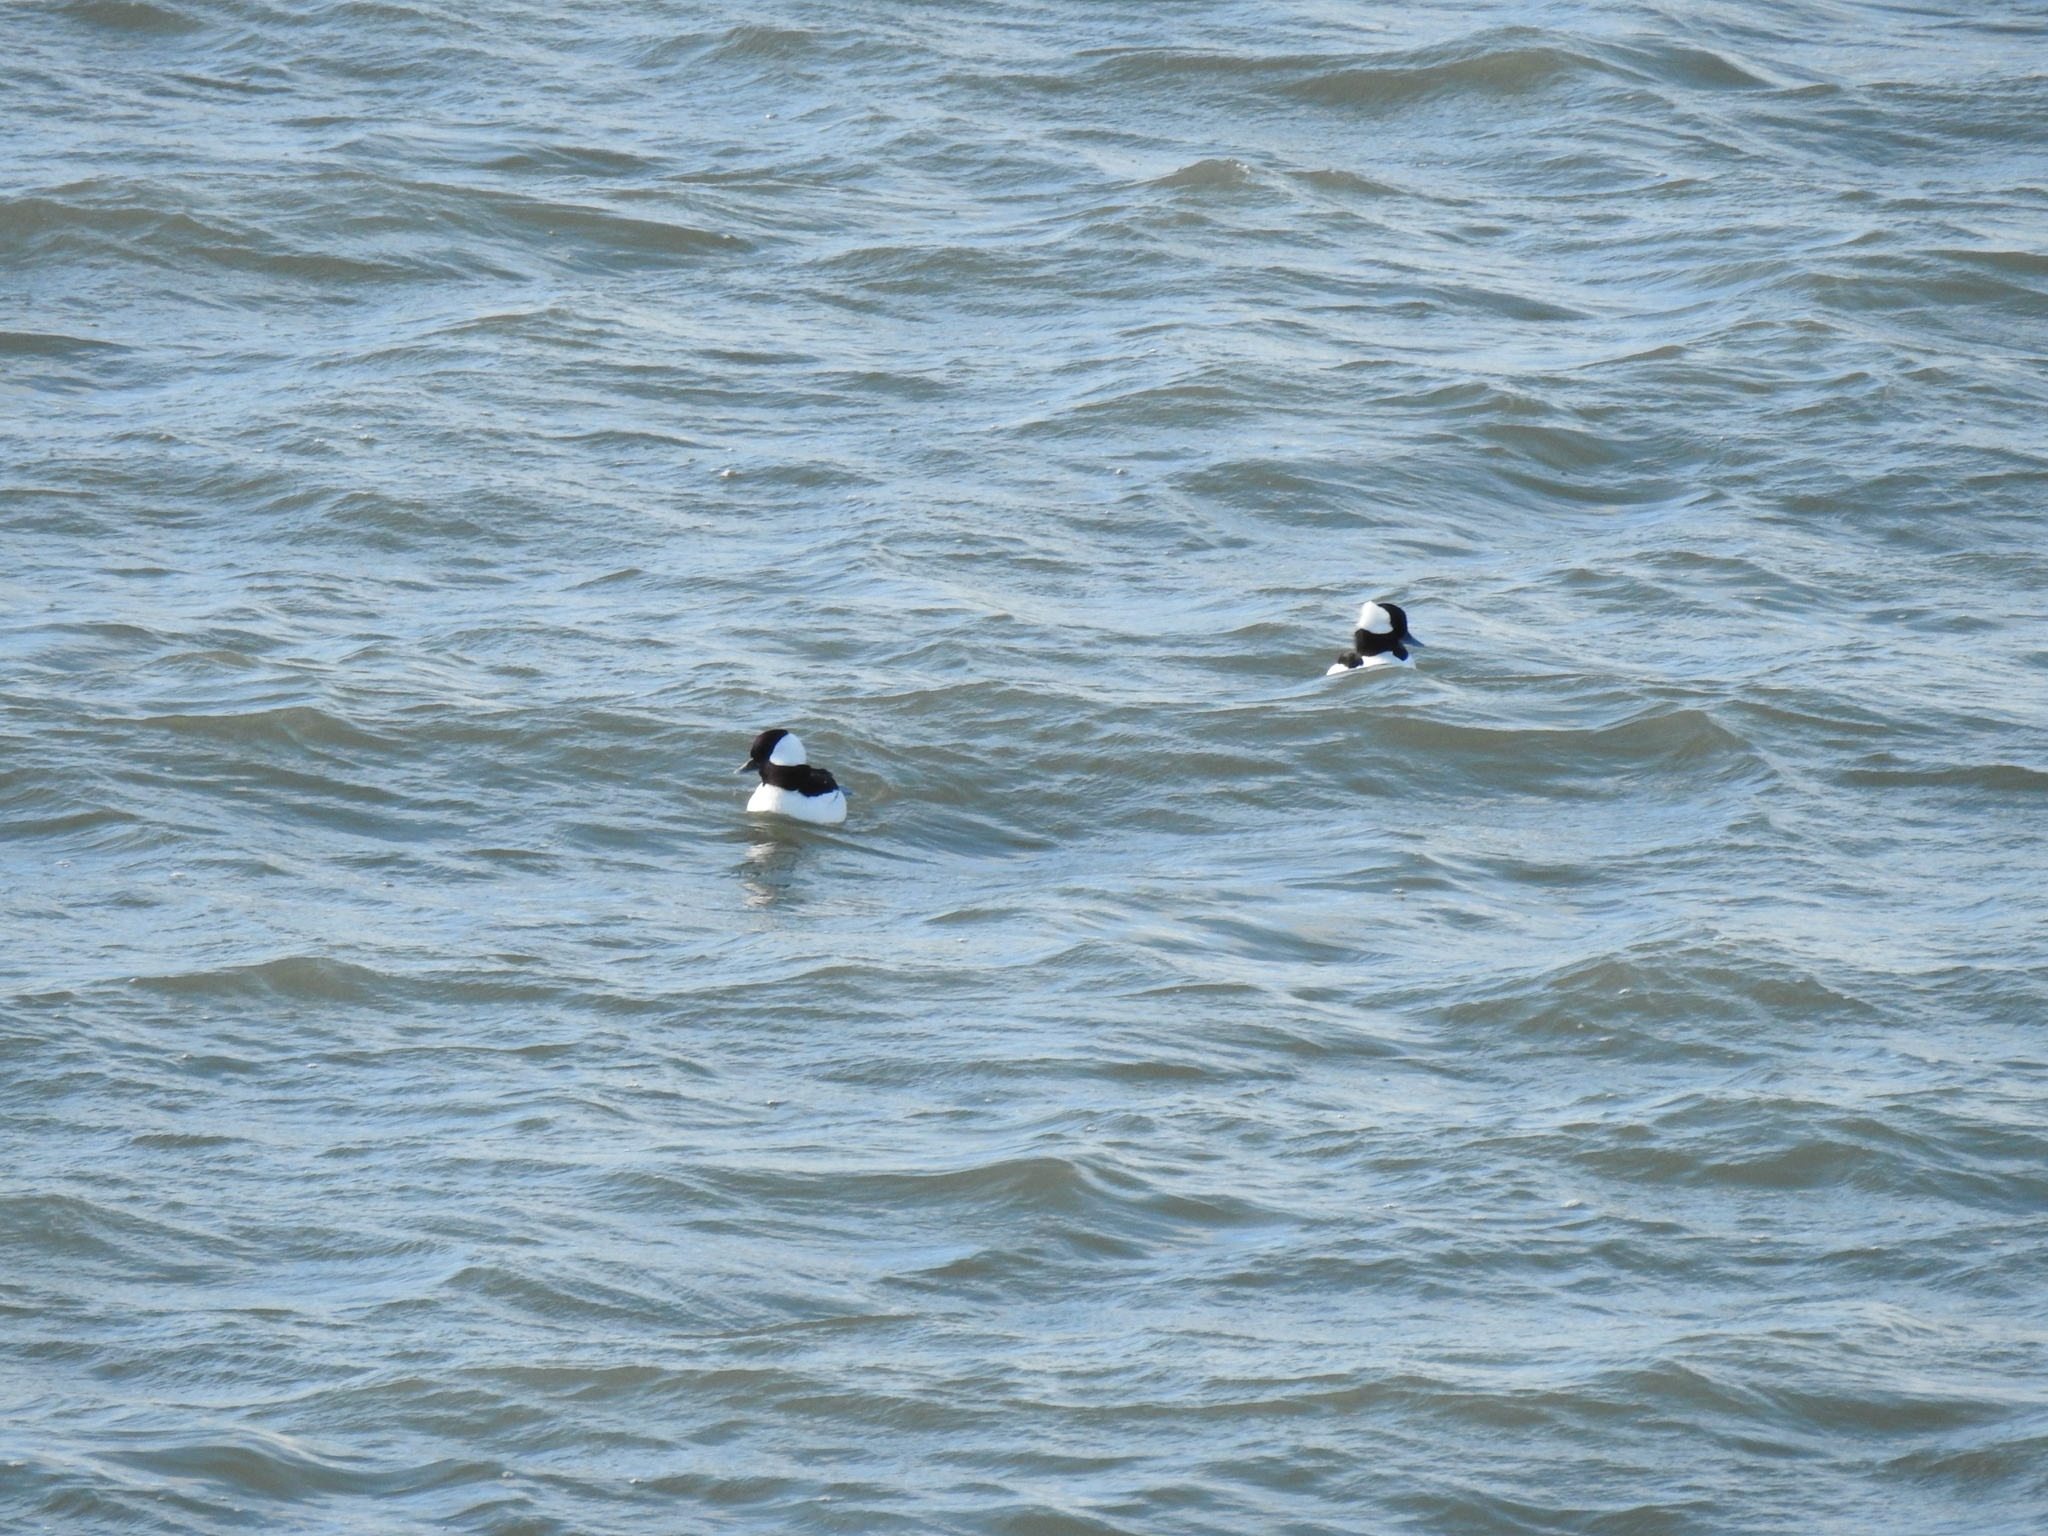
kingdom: Animalia
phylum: Chordata
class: Aves
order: Anseriformes
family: Anatidae
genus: Bucephala
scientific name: Bucephala albeola
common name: Bufflehead
